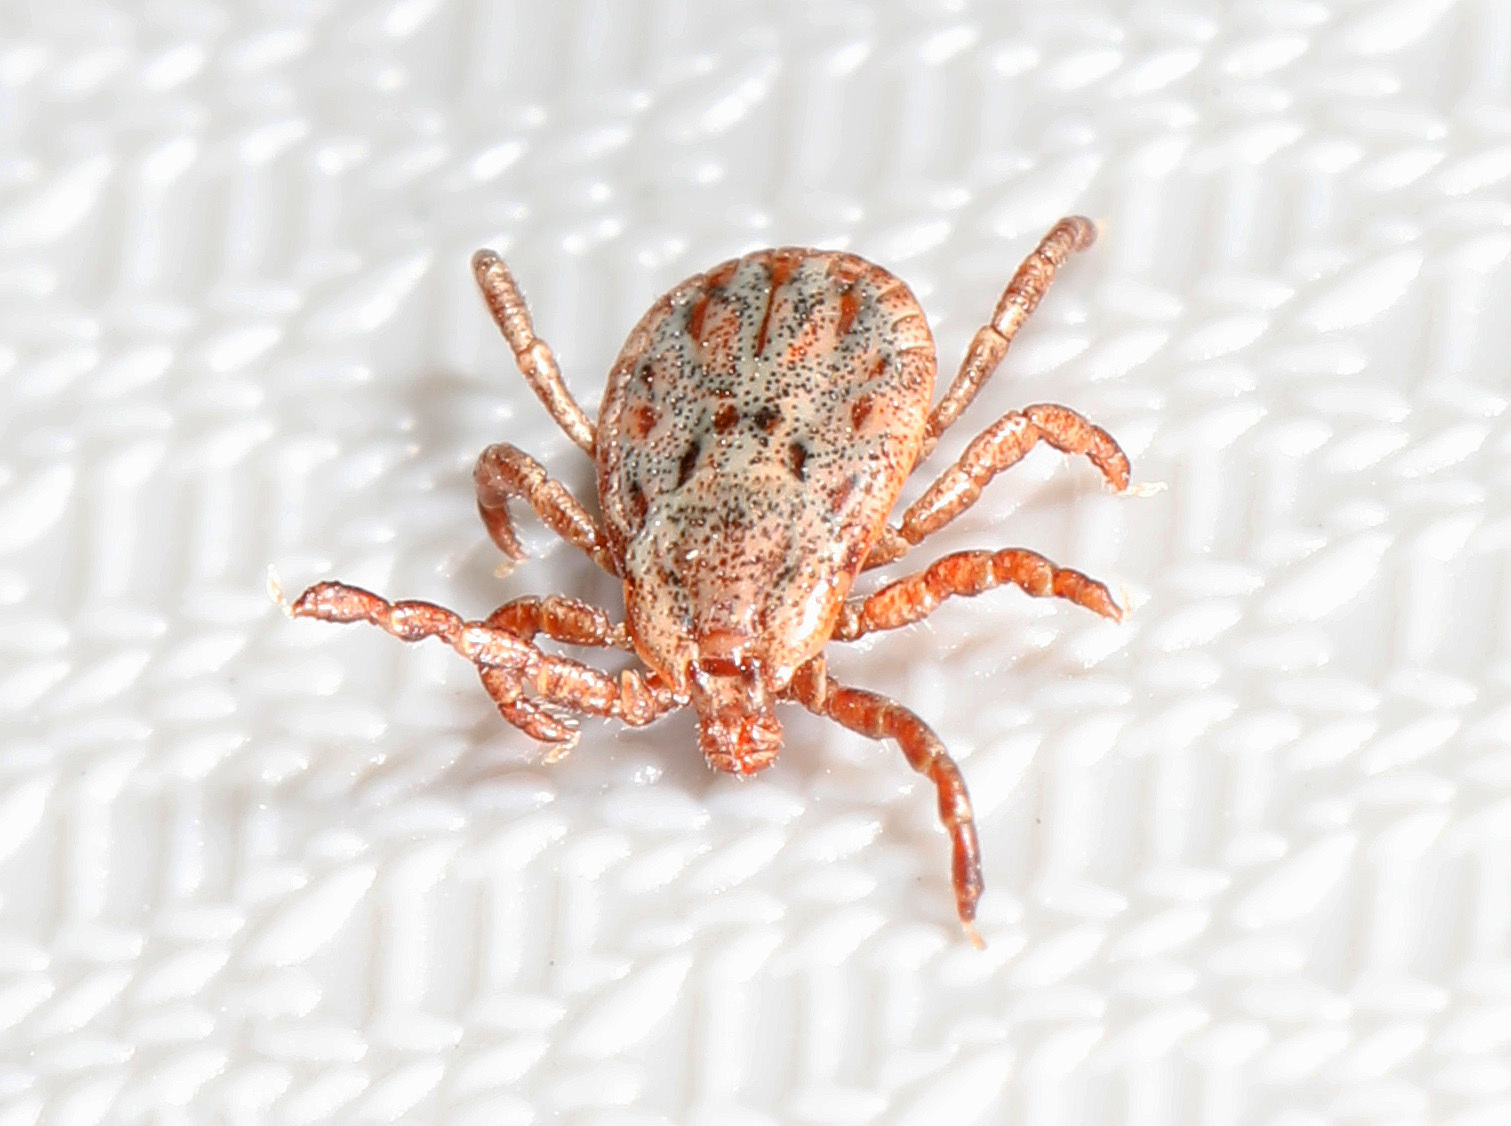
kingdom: Animalia
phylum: Arthropoda
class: Arachnida
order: Ixodida
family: Ixodidae
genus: Dermacentor
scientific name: Dermacentor occidentalis
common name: Net tick
